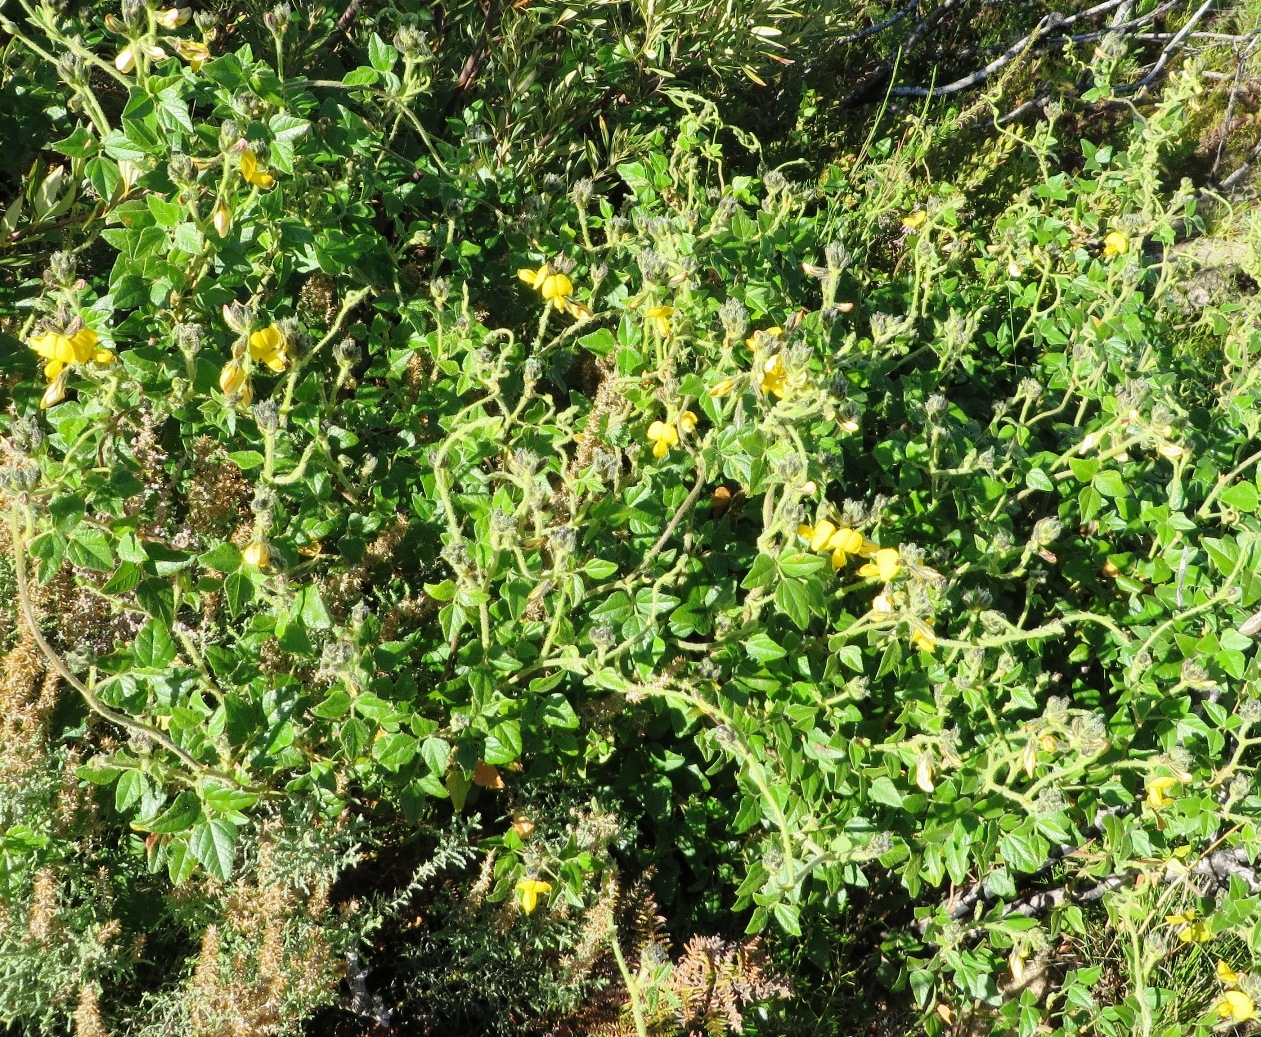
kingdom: Plantae
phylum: Tracheophyta
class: Magnoliopsida
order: Fabales
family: Fabaceae
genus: Bolusafra
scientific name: Bolusafra bituminosa
